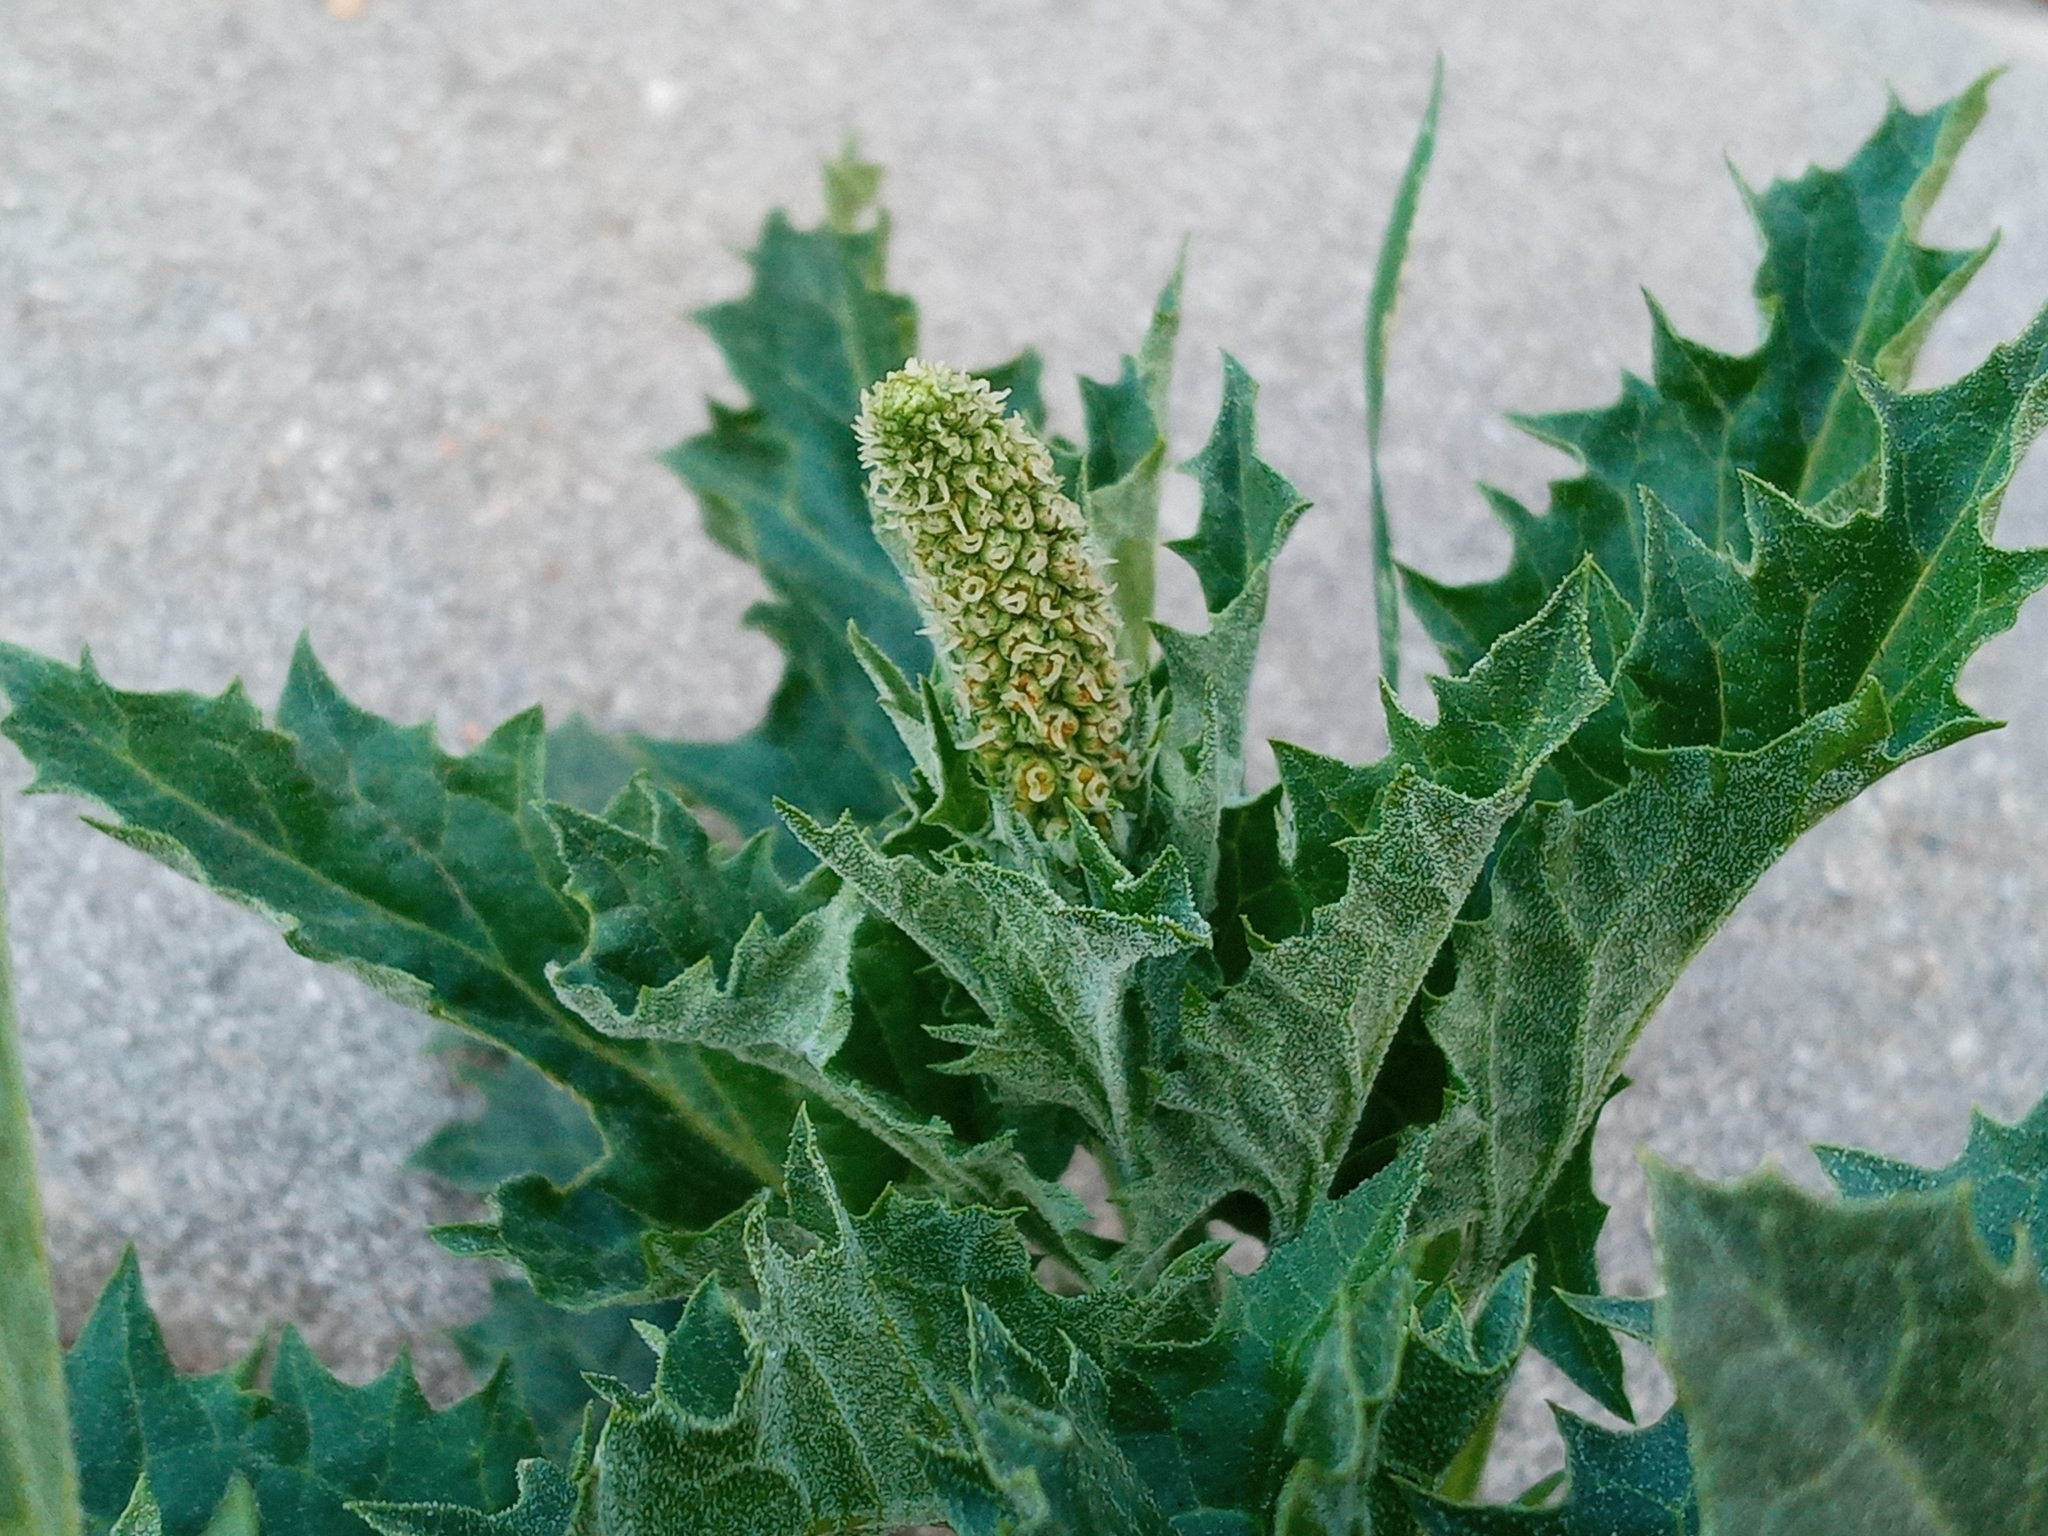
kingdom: Plantae
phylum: Tracheophyta
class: Magnoliopsida
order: Caryophyllales
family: Amaranthaceae
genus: Blitum
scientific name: Blitum californicum
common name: California goosefoot
